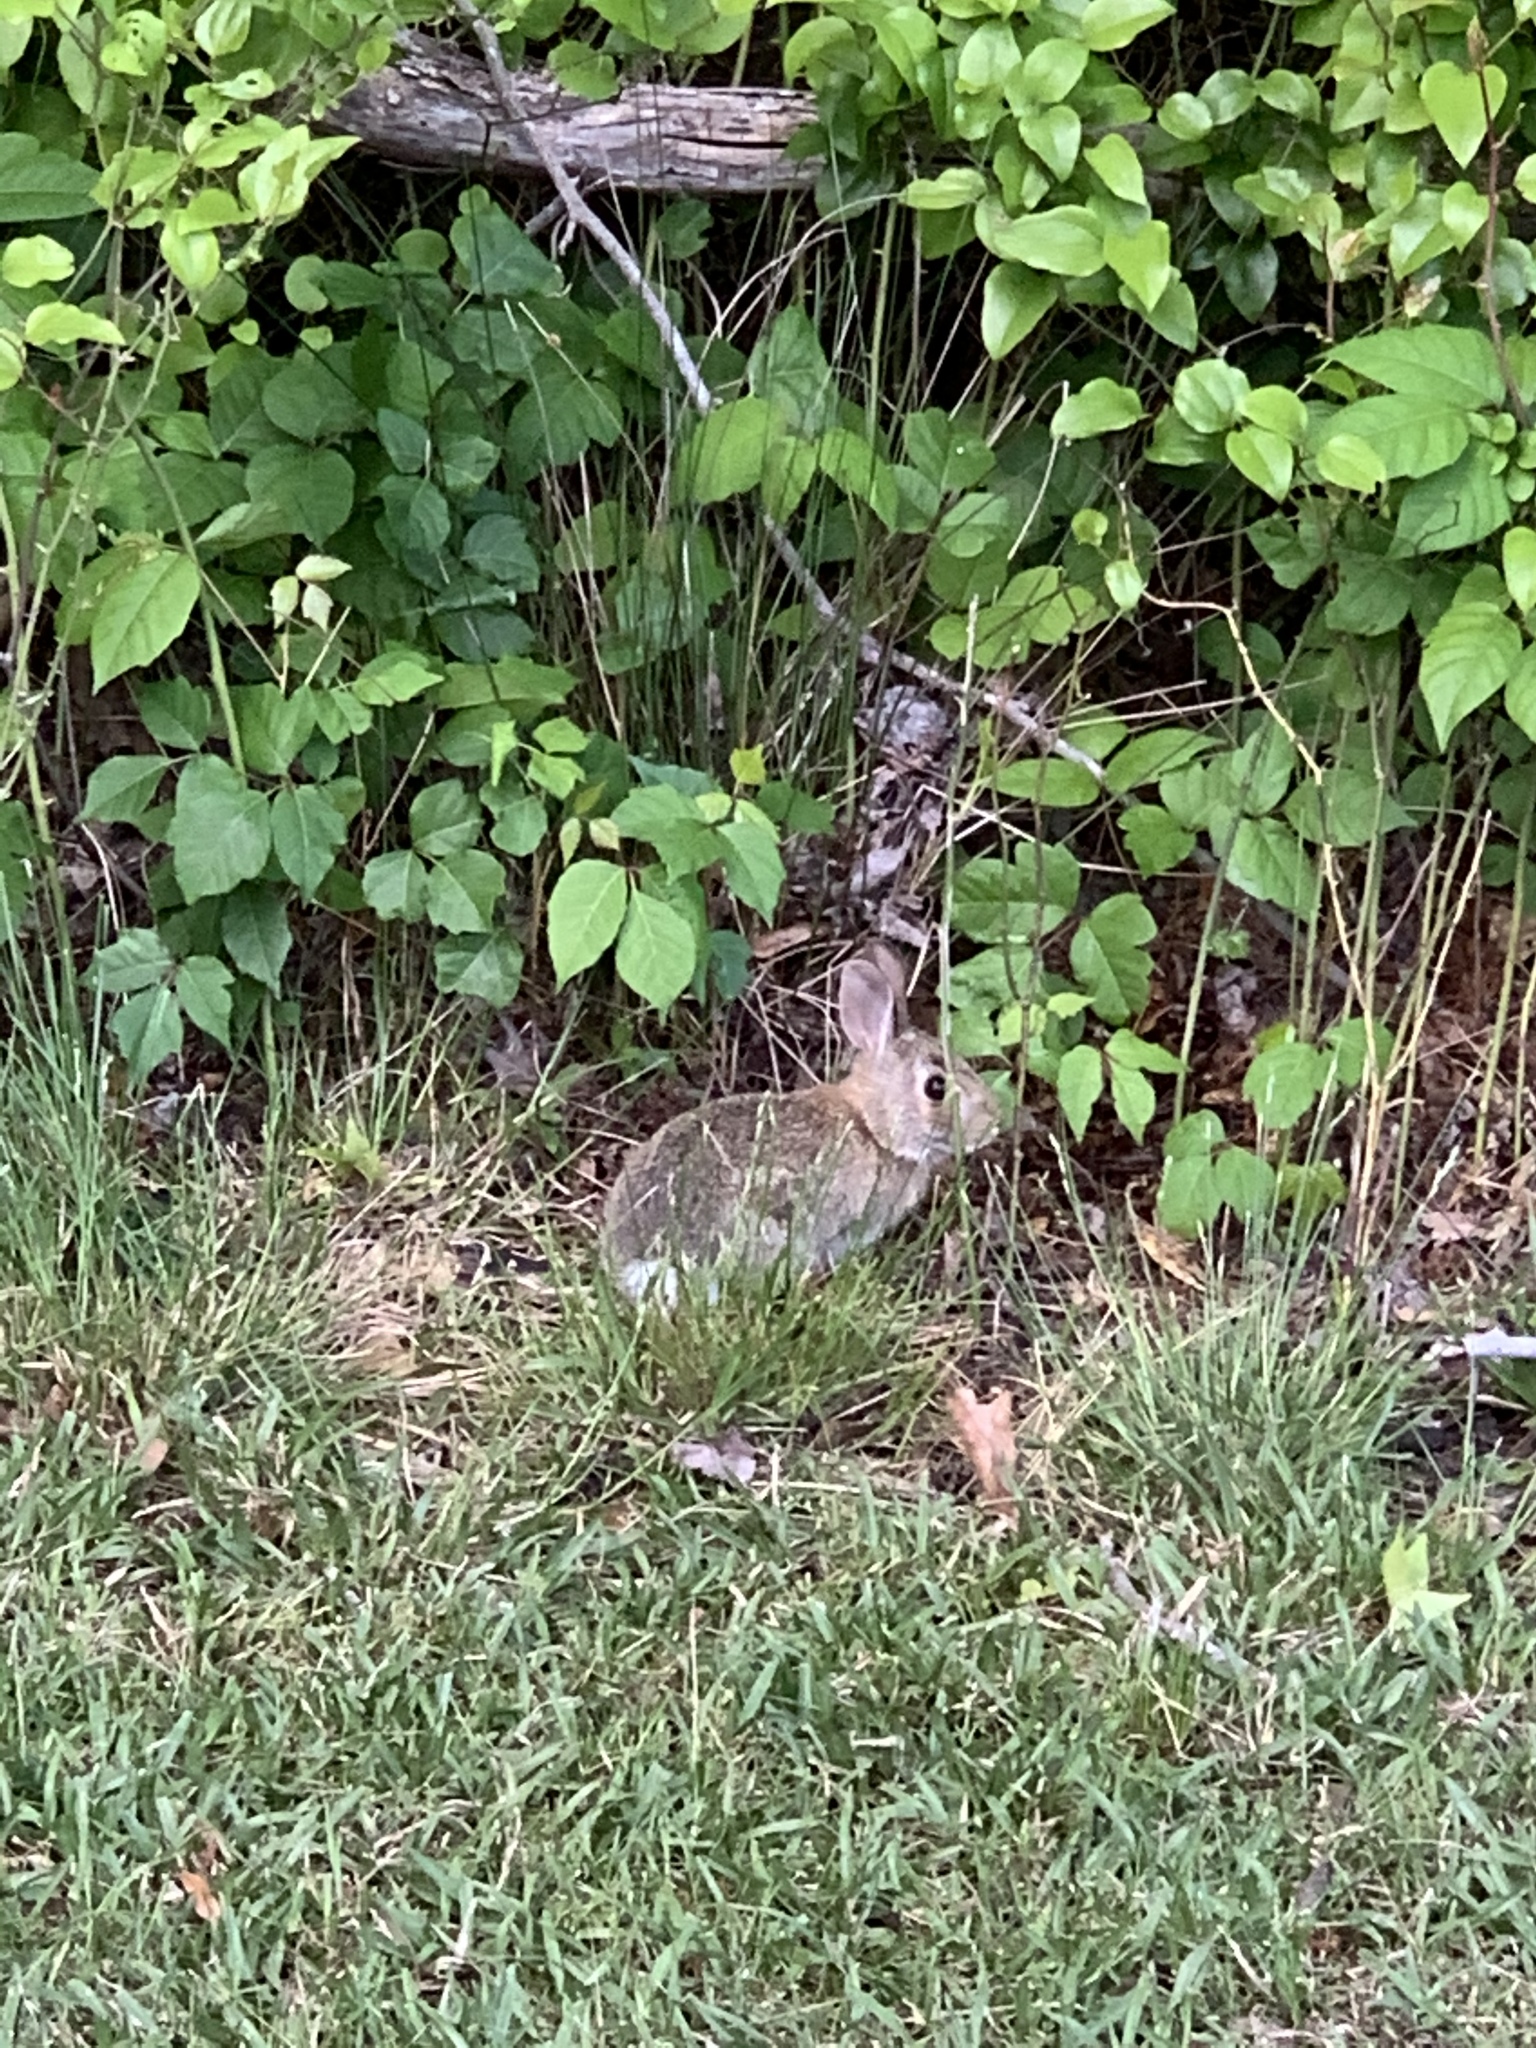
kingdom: Animalia
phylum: Chordata
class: Mammalia
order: Lagomorpha
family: Leporidae
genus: Sylvilagus
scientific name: Sylvilagus floridanus
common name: Eastern cottontail
